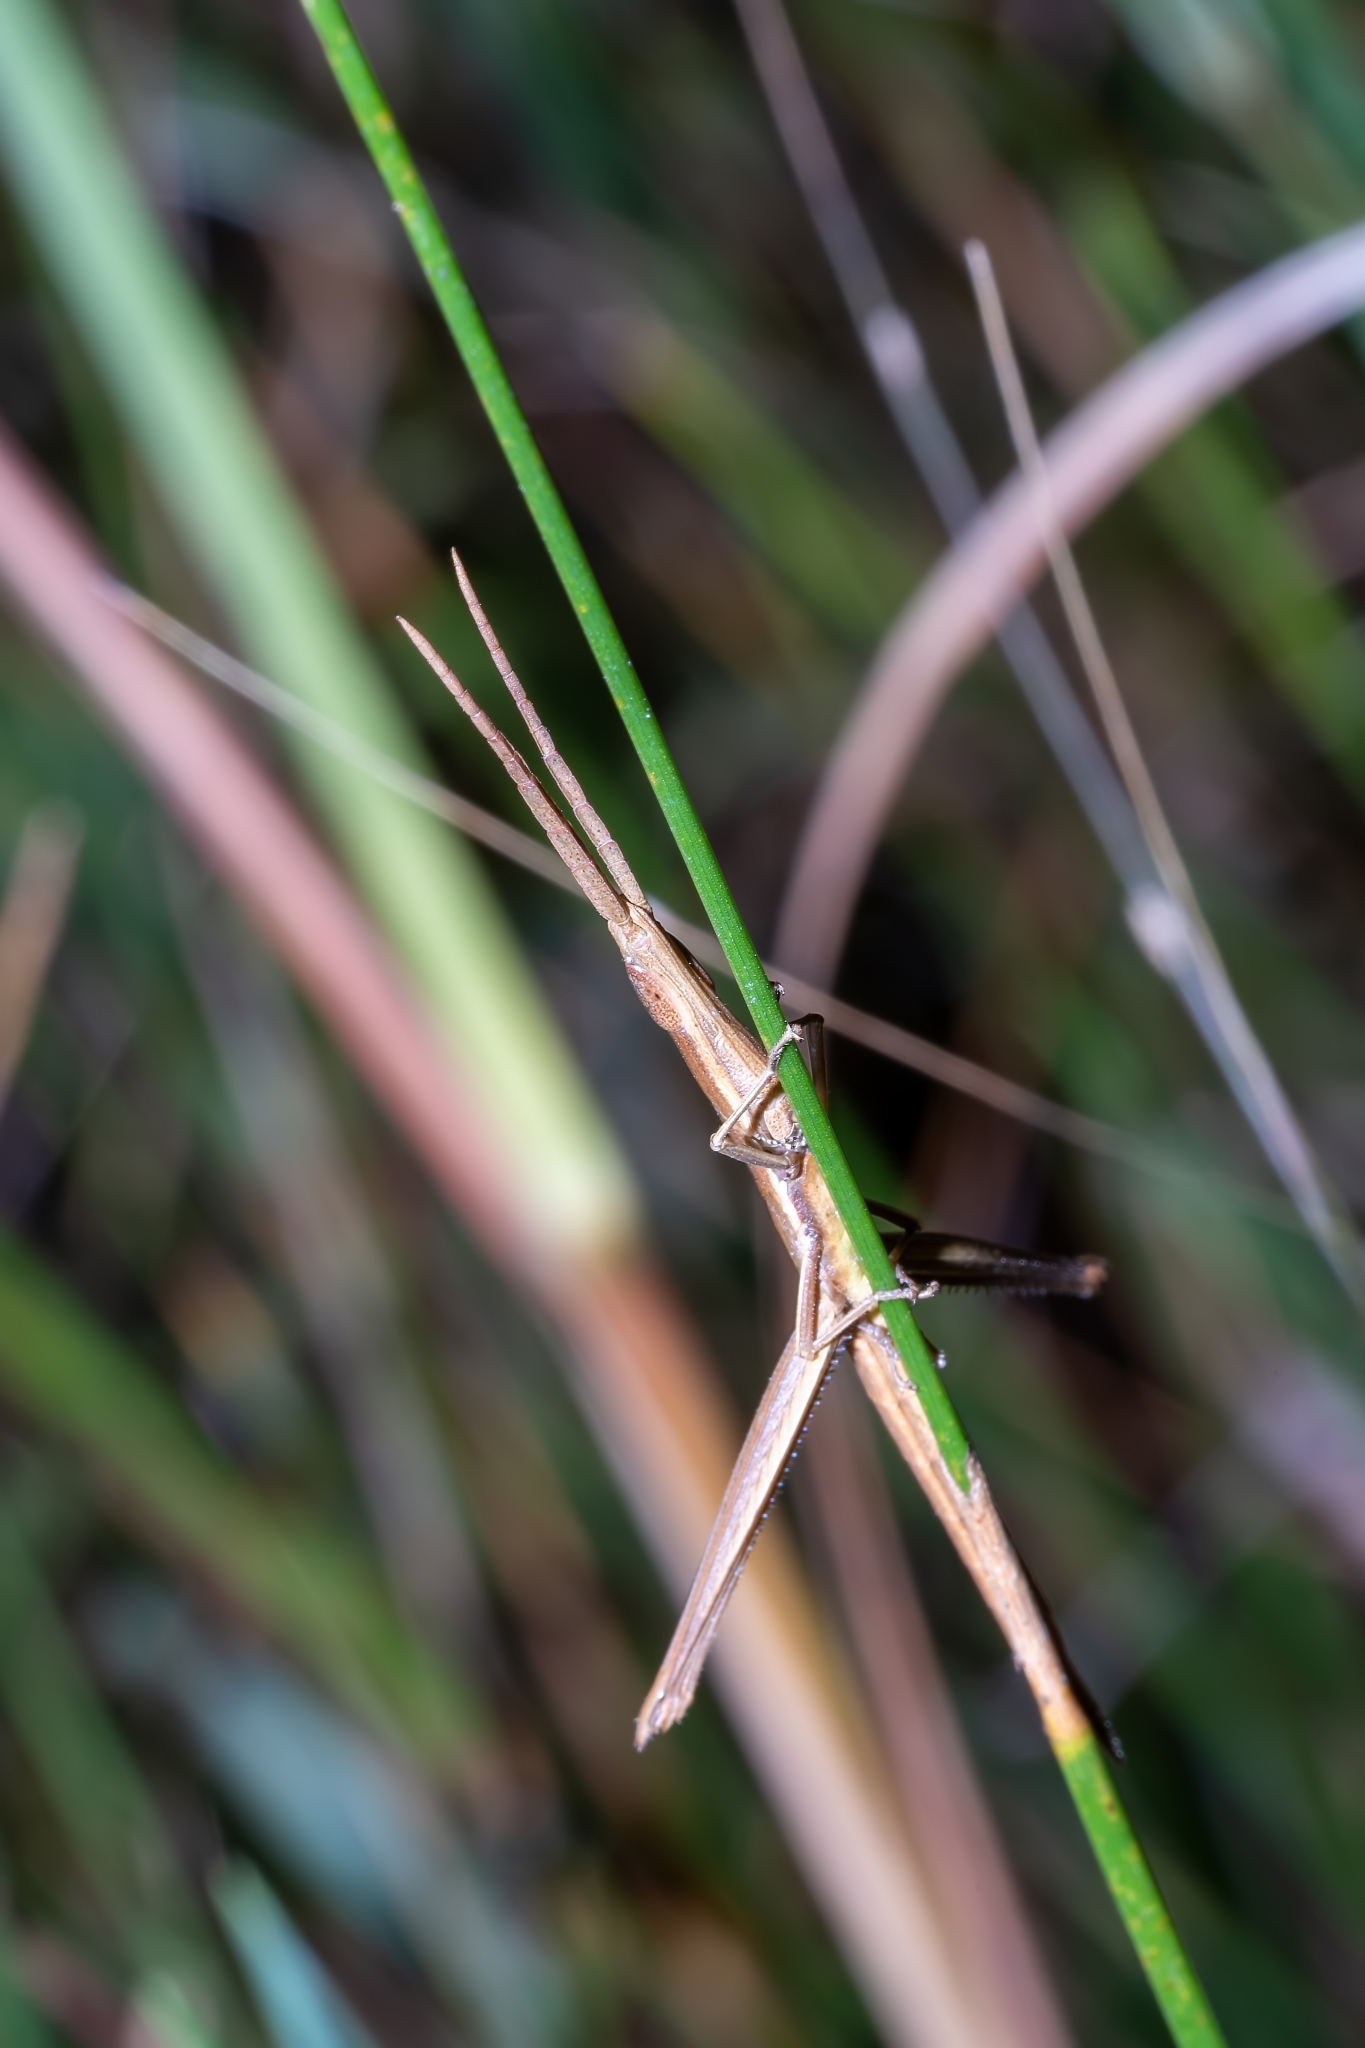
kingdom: Animalia
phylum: Arthropoda
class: Insecta
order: Orthoptera
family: Acrididae
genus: Achurum
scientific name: Achurum carinatum
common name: Long-headed toothpick grasshopper
